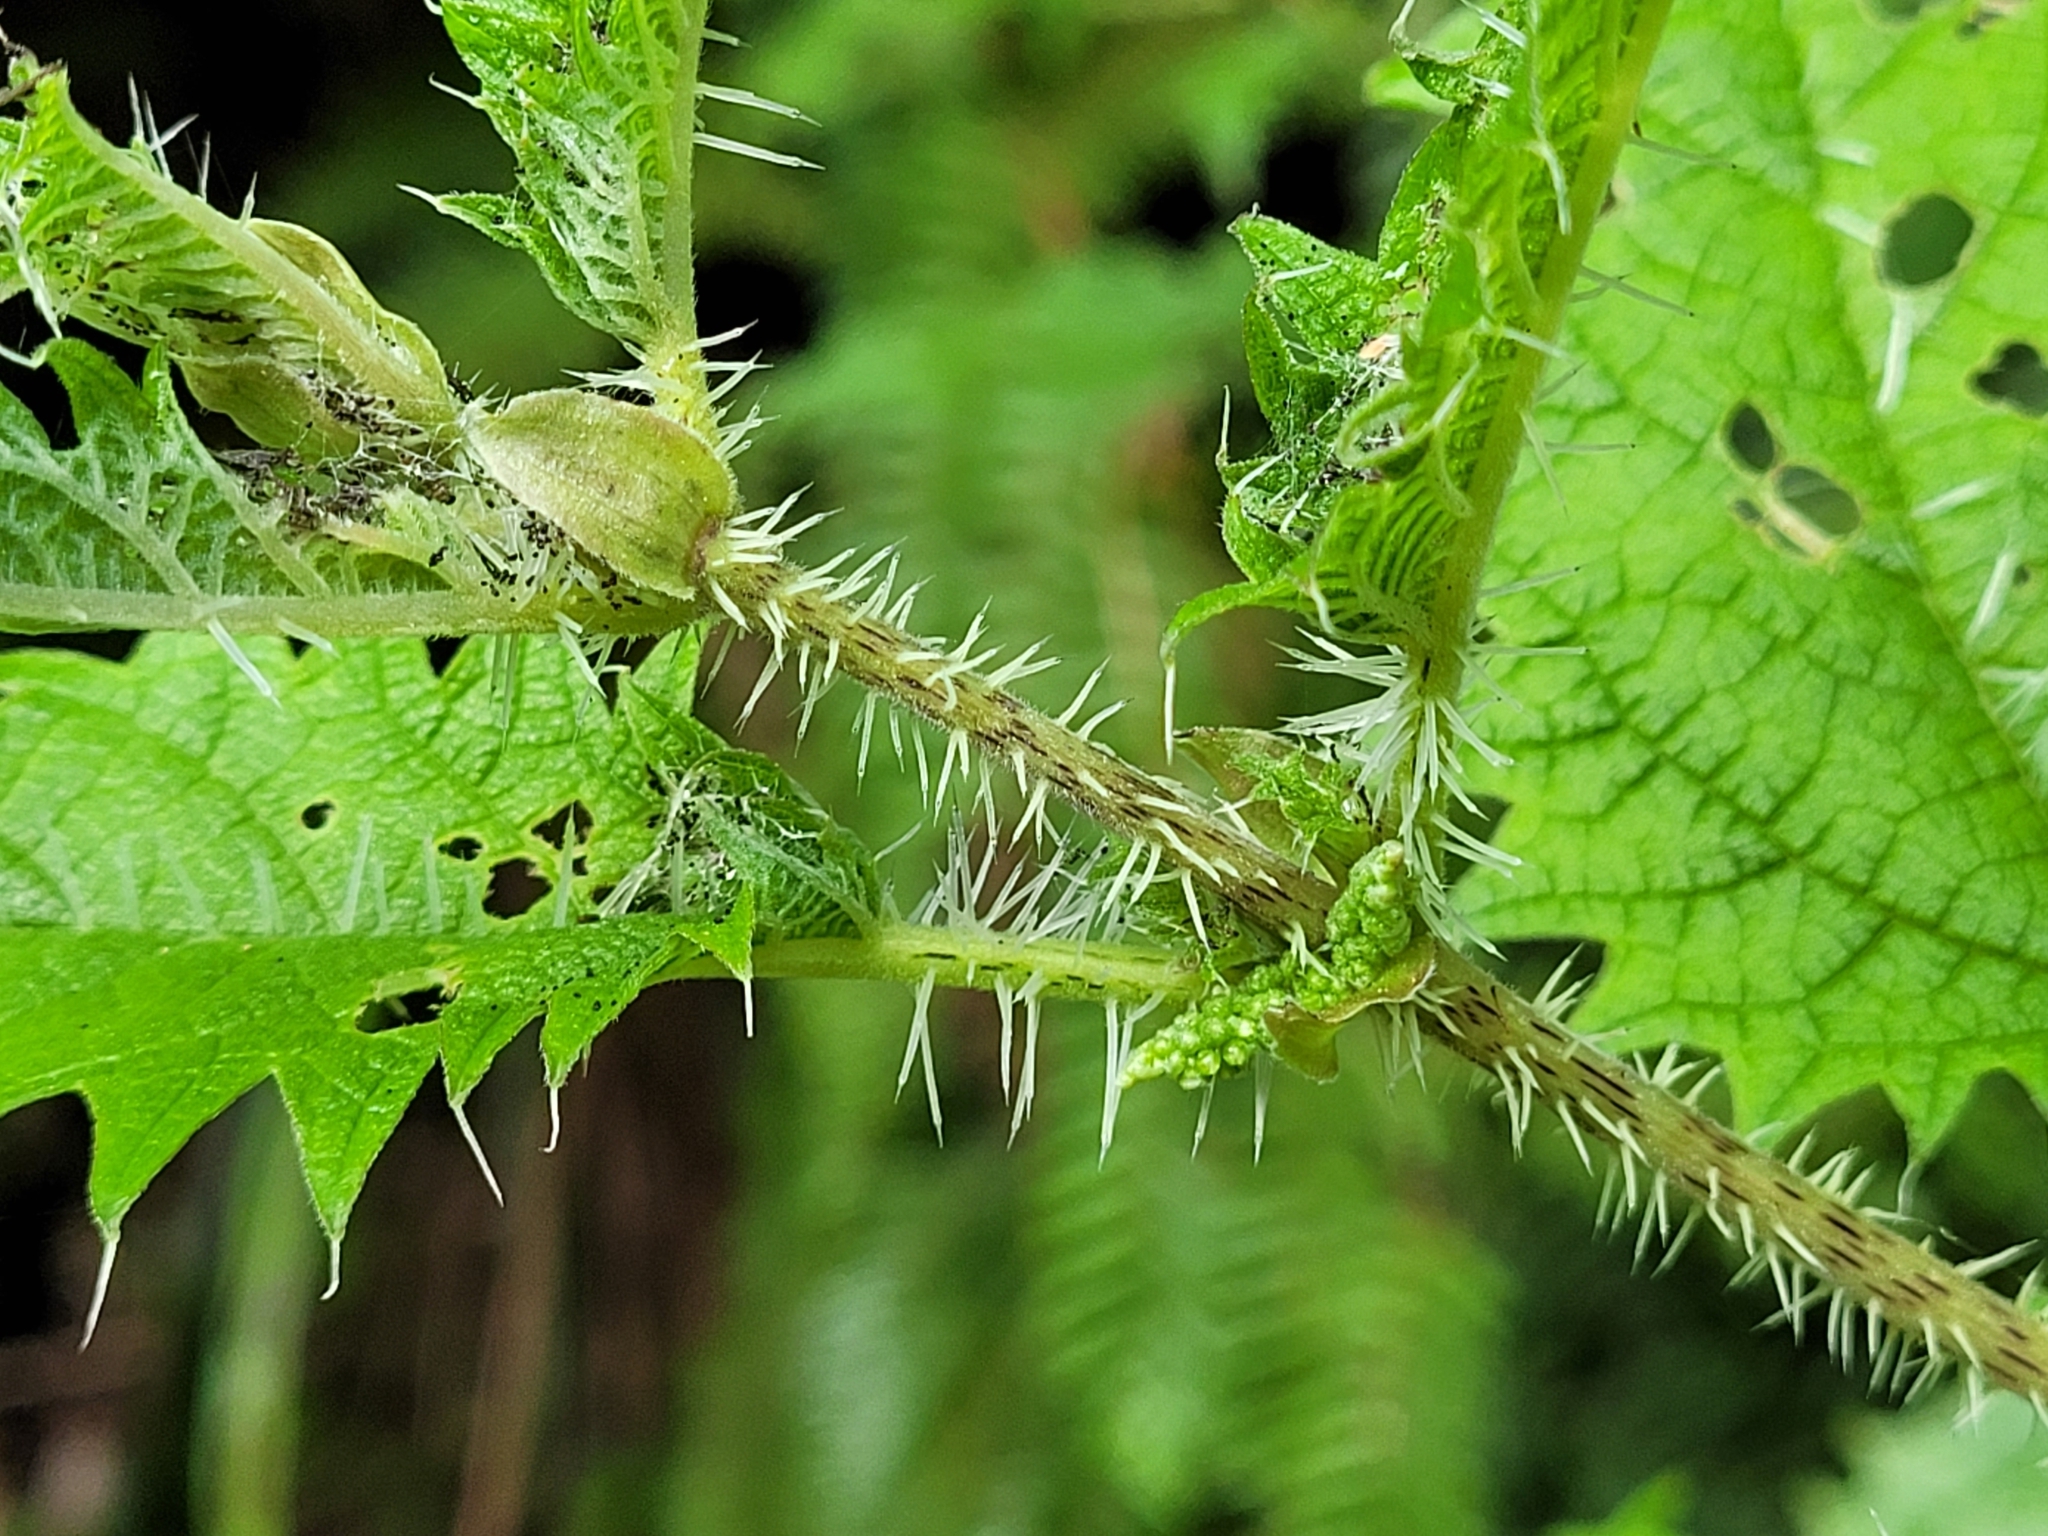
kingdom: Plantae
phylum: Tracheophyta
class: Magnoliopsida
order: Rosales
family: Urticaceae
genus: Urtica
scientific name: Urtica ferox
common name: Tree nettle
